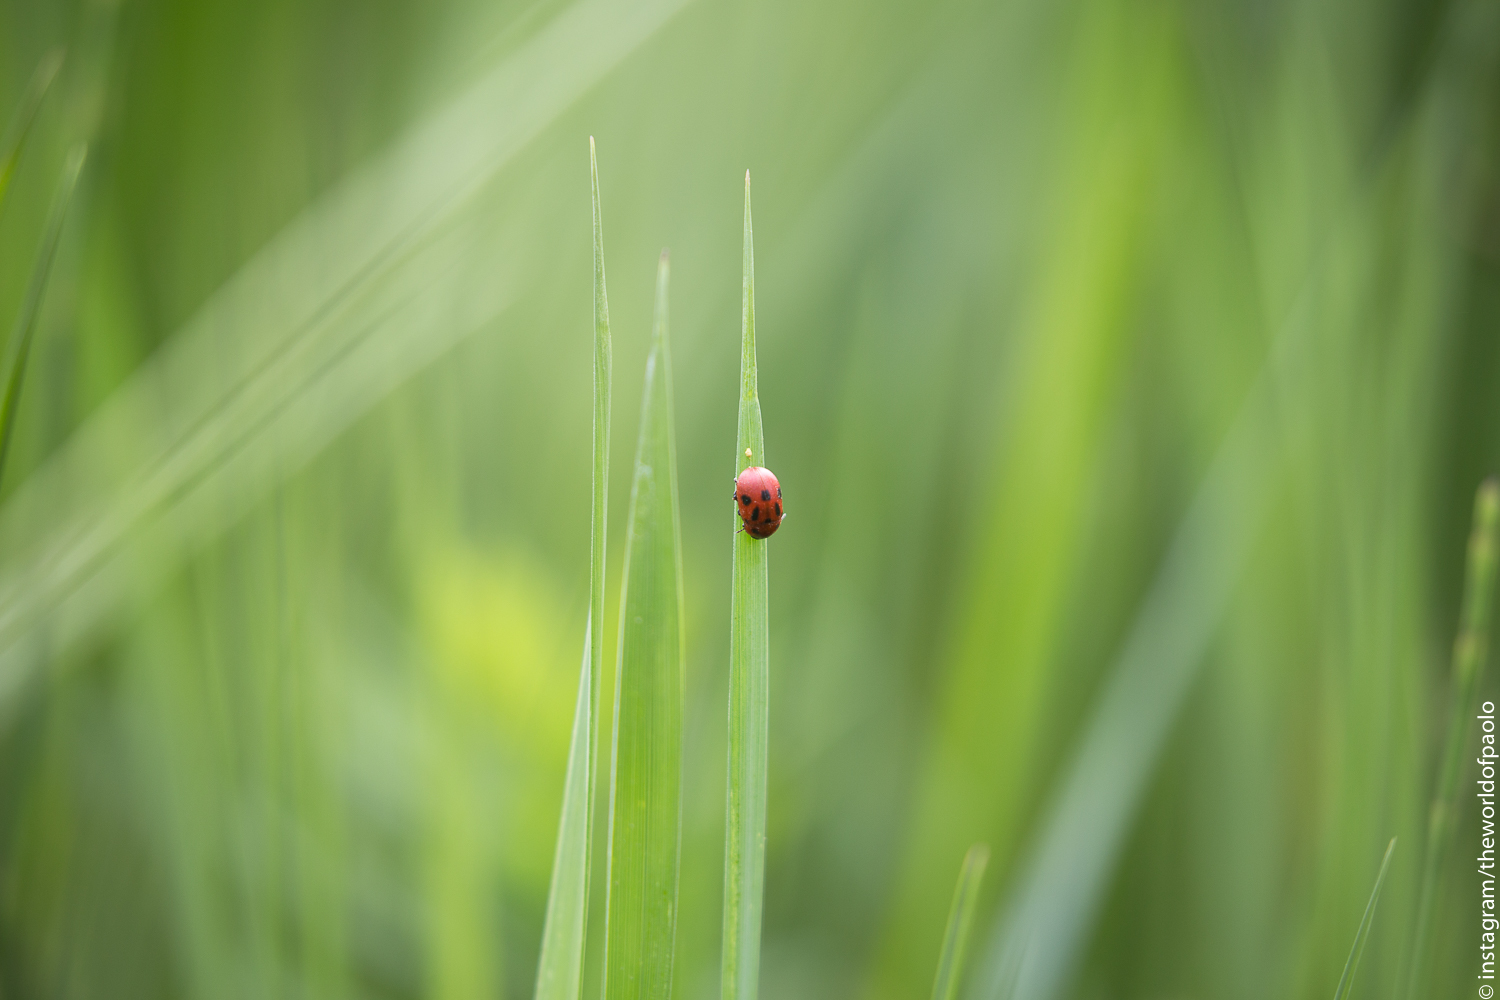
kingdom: Animalia
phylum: Arthropoda
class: Insecta
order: Coleoptera
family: Chrysomelidae
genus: Gonioctena
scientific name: Gonioctena fornicata
